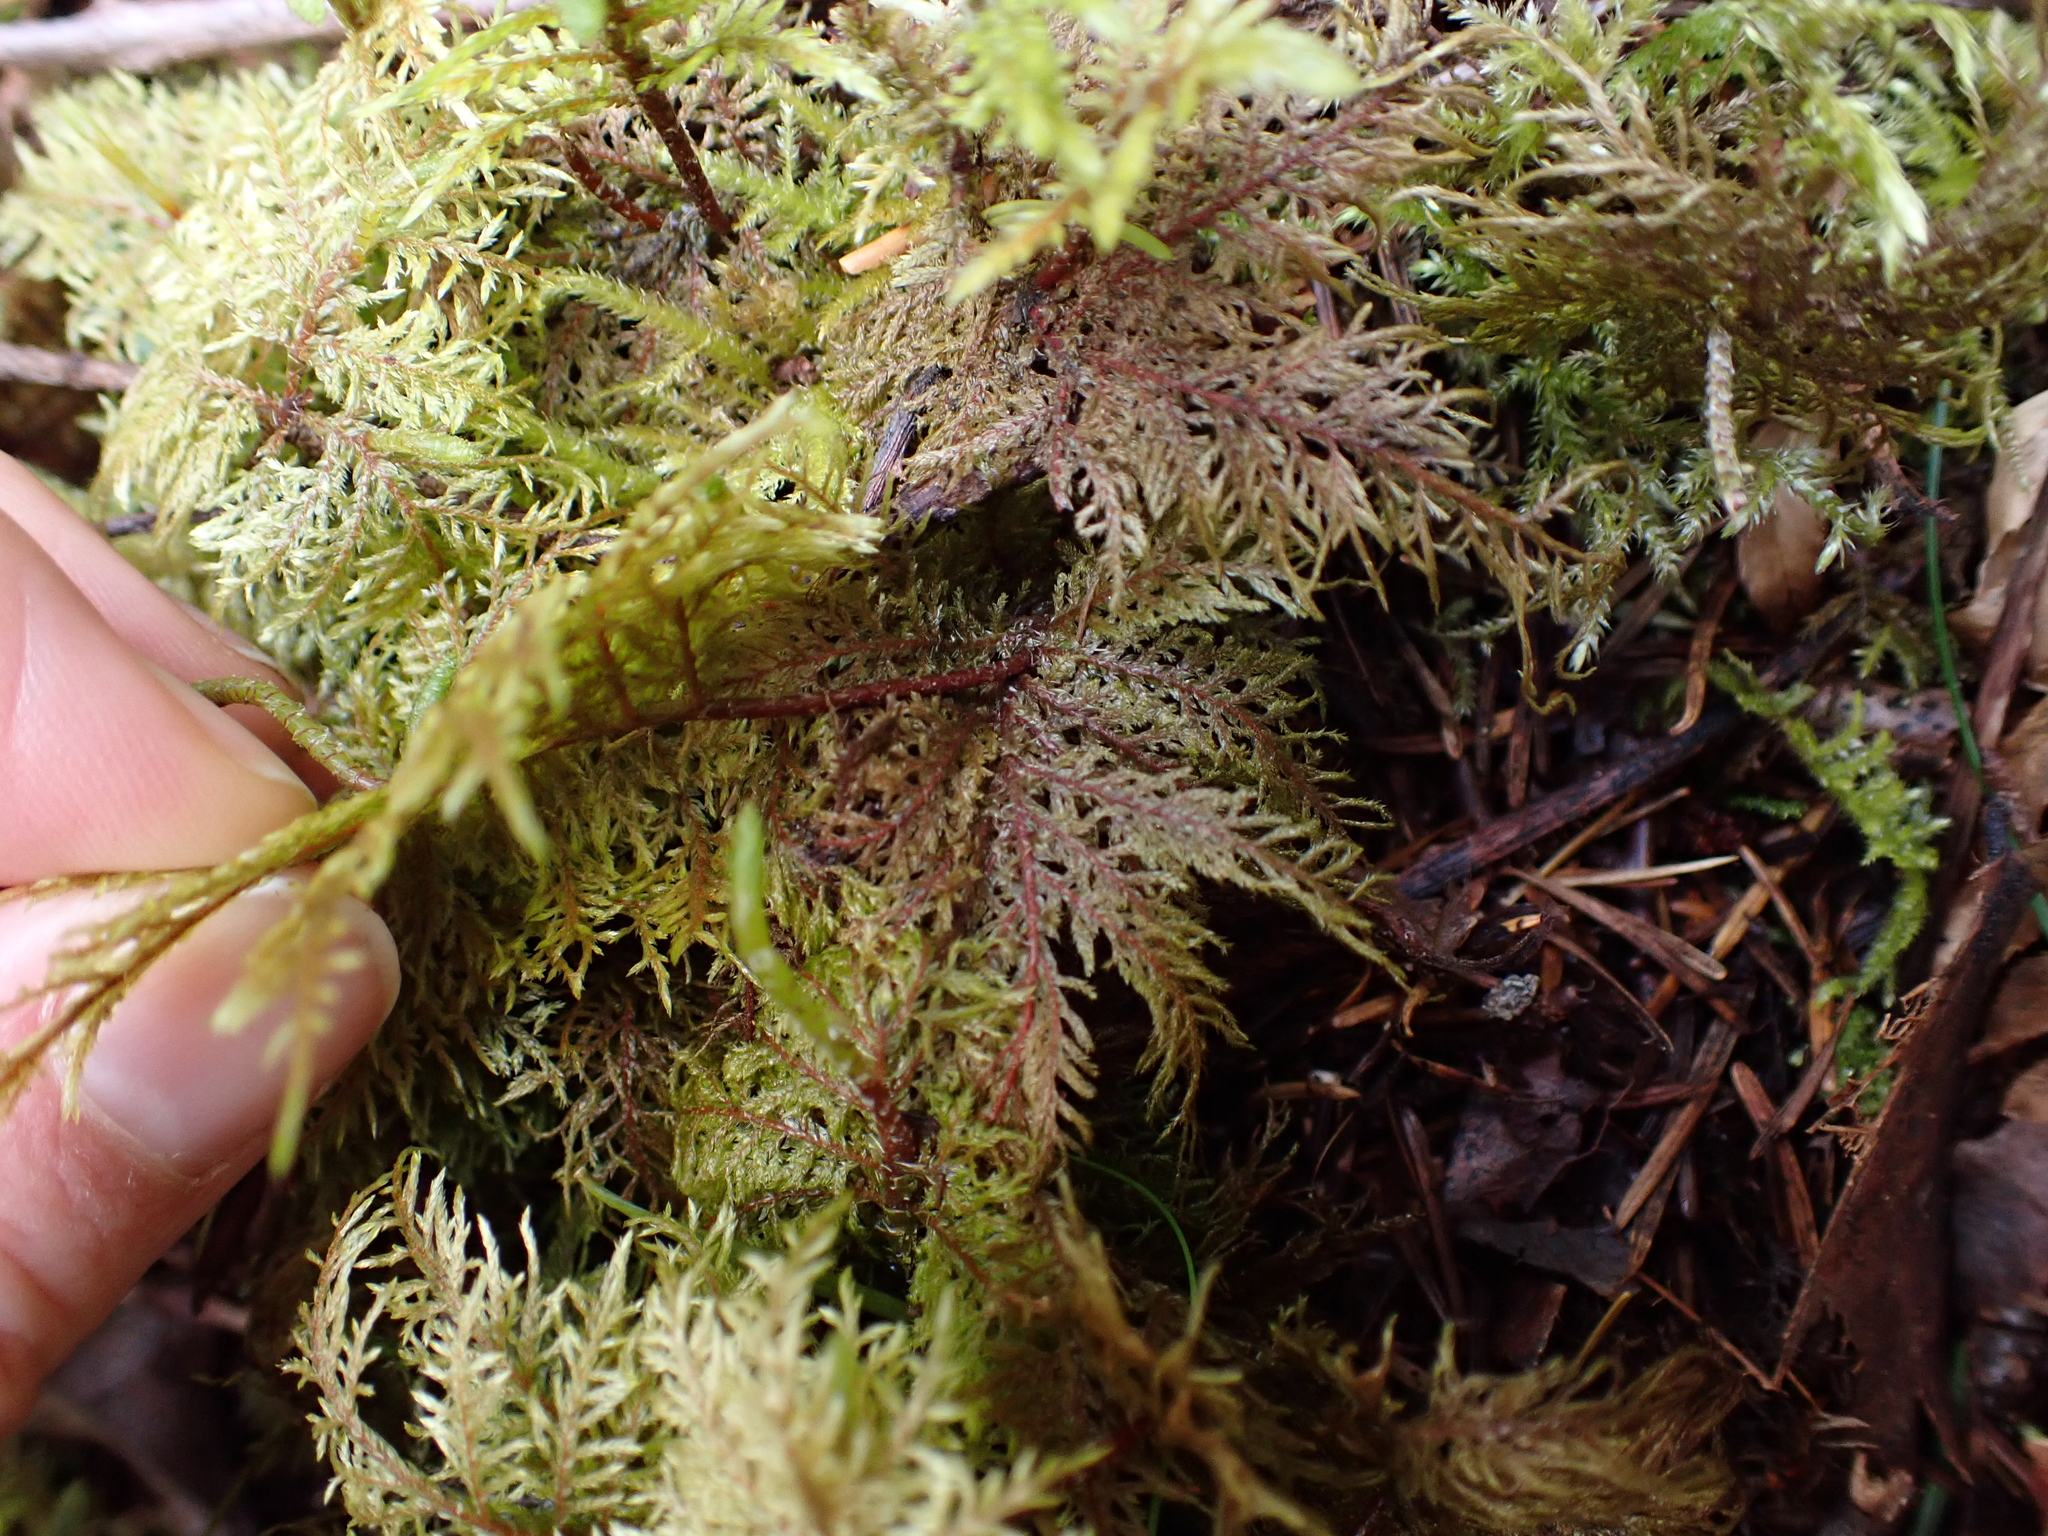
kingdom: Plantae
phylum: Bryophyta
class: Bryopsida
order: Hypnales
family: Hylocomiaceae
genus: Hylocomium
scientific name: Hylocomium splendens
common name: Stairstep moss
